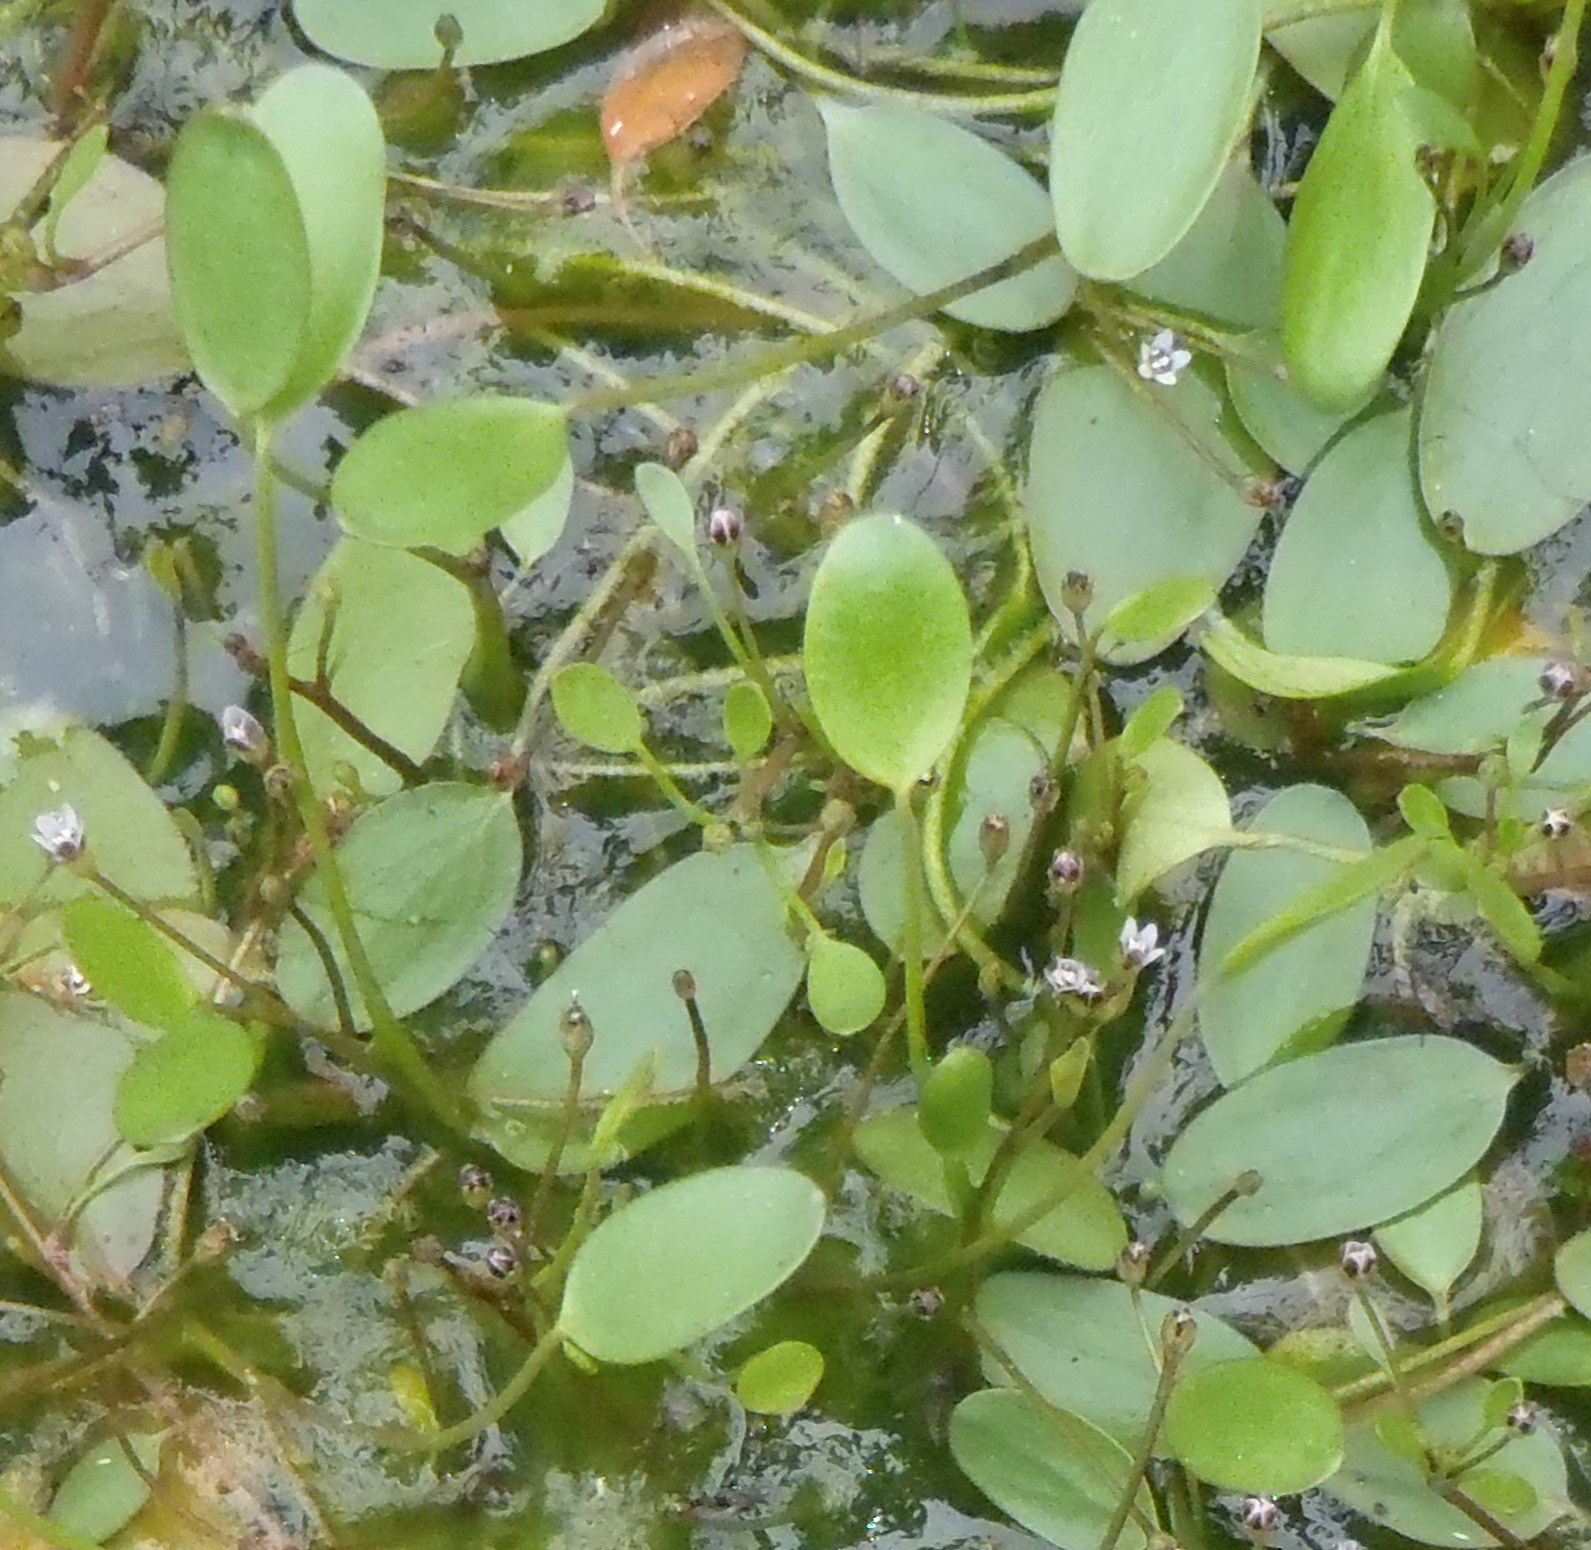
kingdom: Plantae
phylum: Tracheophyta
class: Magnoliopsida
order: Lamiales
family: Scrophulariaceae
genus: Limosella
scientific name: Limosella grandiflora
